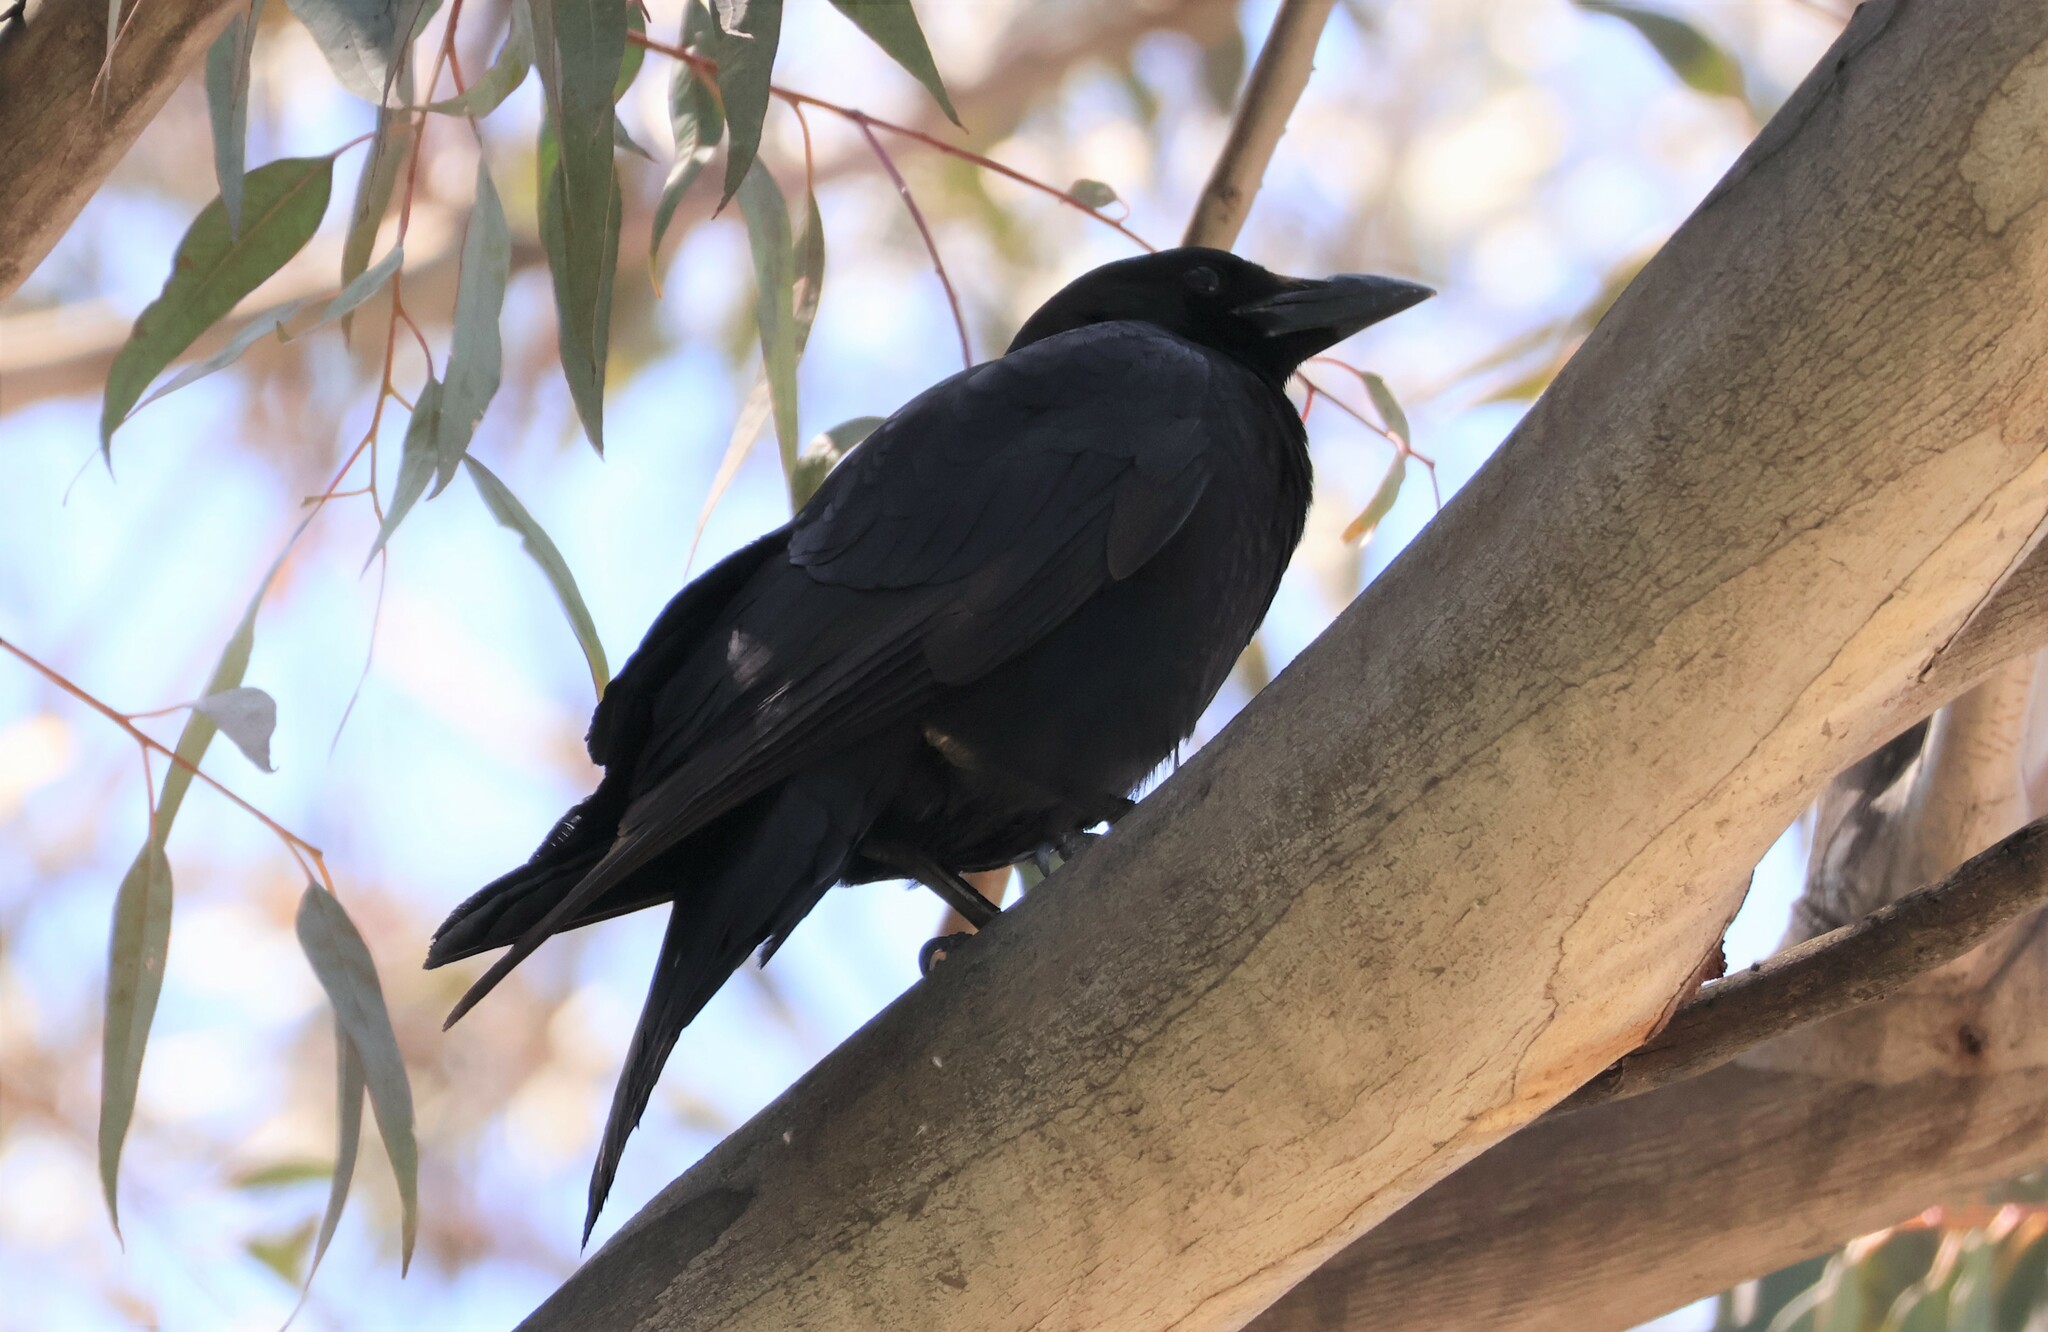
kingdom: Animalia
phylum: Chordata
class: Aves
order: Passeriformes
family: Corvidae
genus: Corvus
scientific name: Corvus brachyrhynchos
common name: American crow
